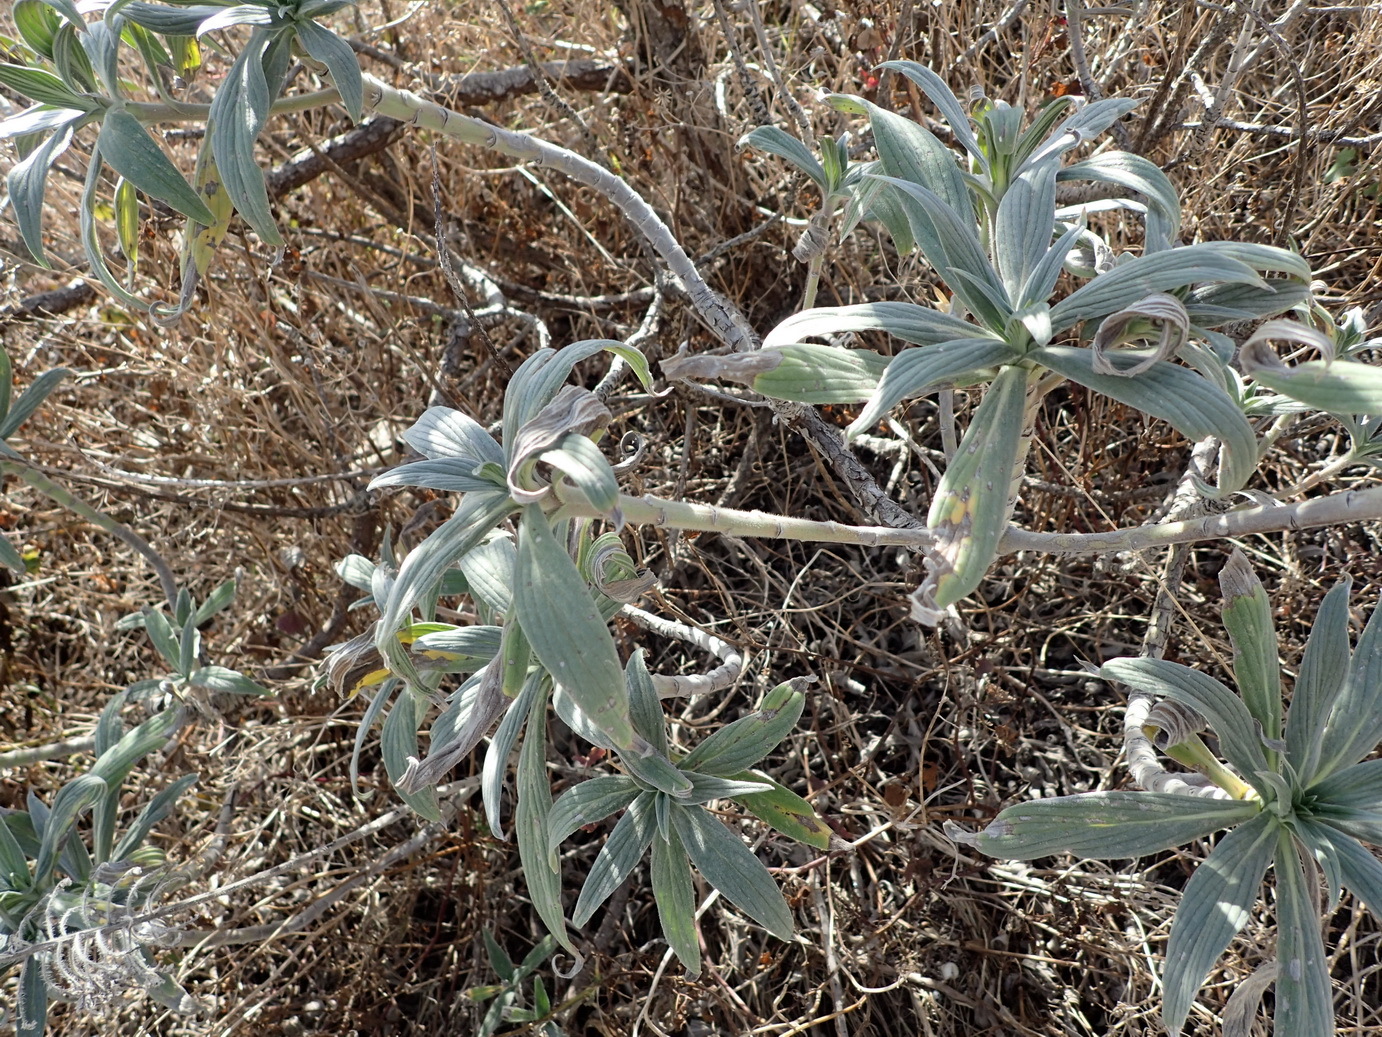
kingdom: Plantae
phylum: Tracheophyta
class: Magnoliopsida
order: Boraginales
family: Boraginaceae
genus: Echium
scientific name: Echium candicans
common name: Pride of madeira
